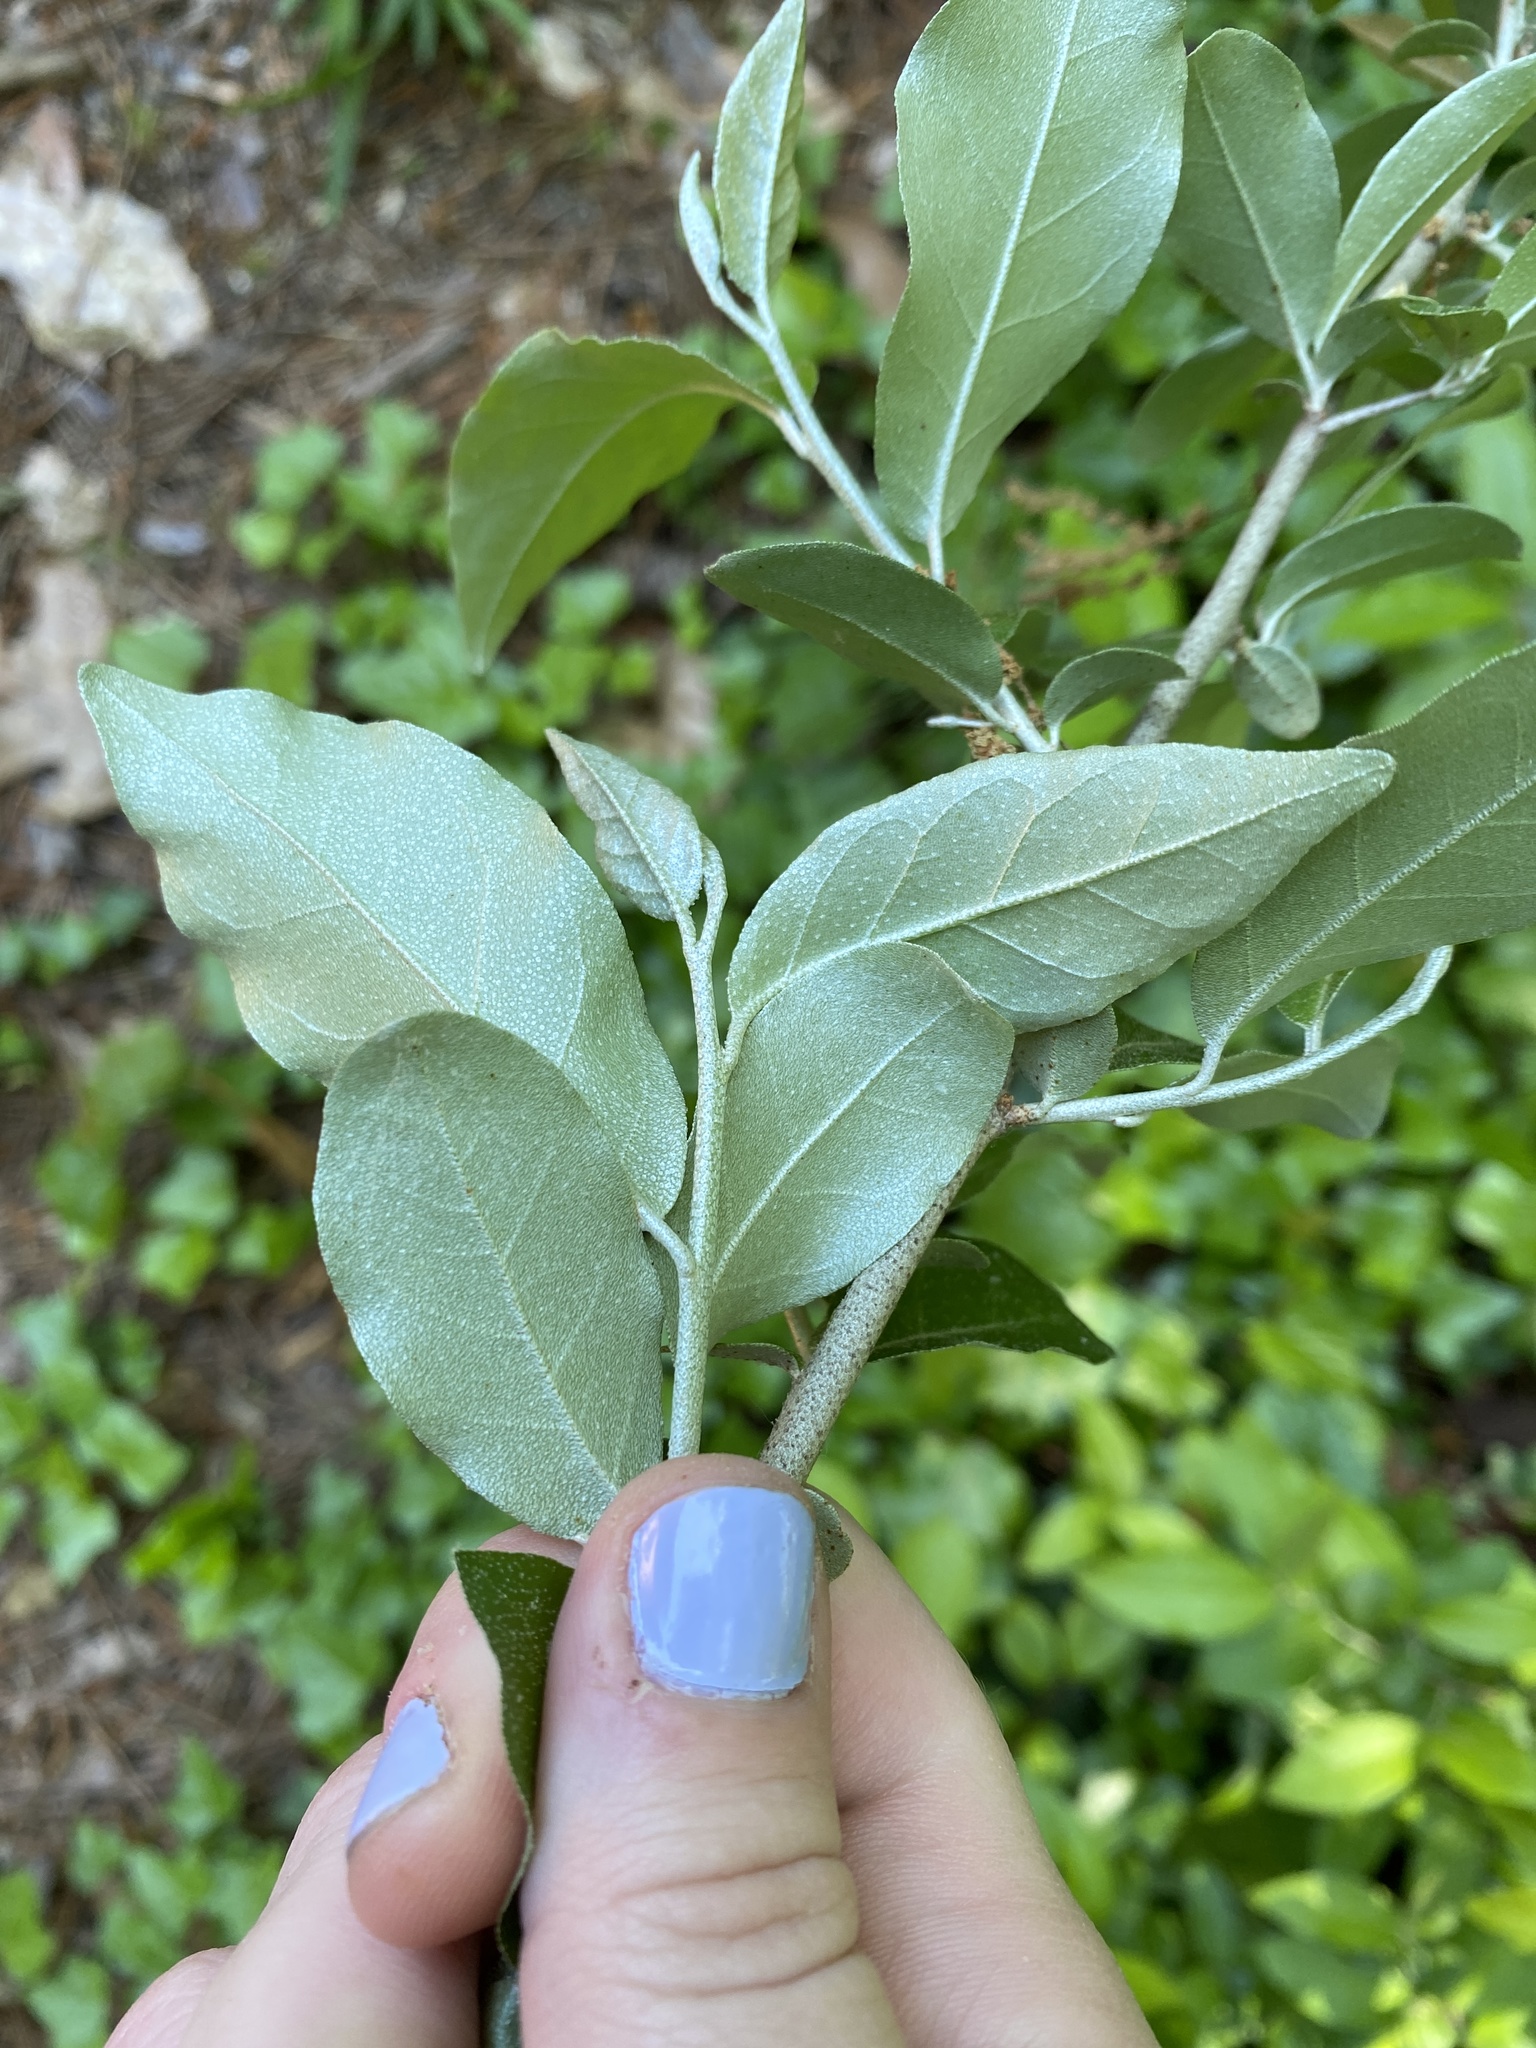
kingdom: Plantae
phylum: Tracheophyta
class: Magnoliopsida
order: Rosales
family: Elaeagnaceae
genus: Elaeagnus
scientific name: Elaeagnus umbellata
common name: Autumn olive
